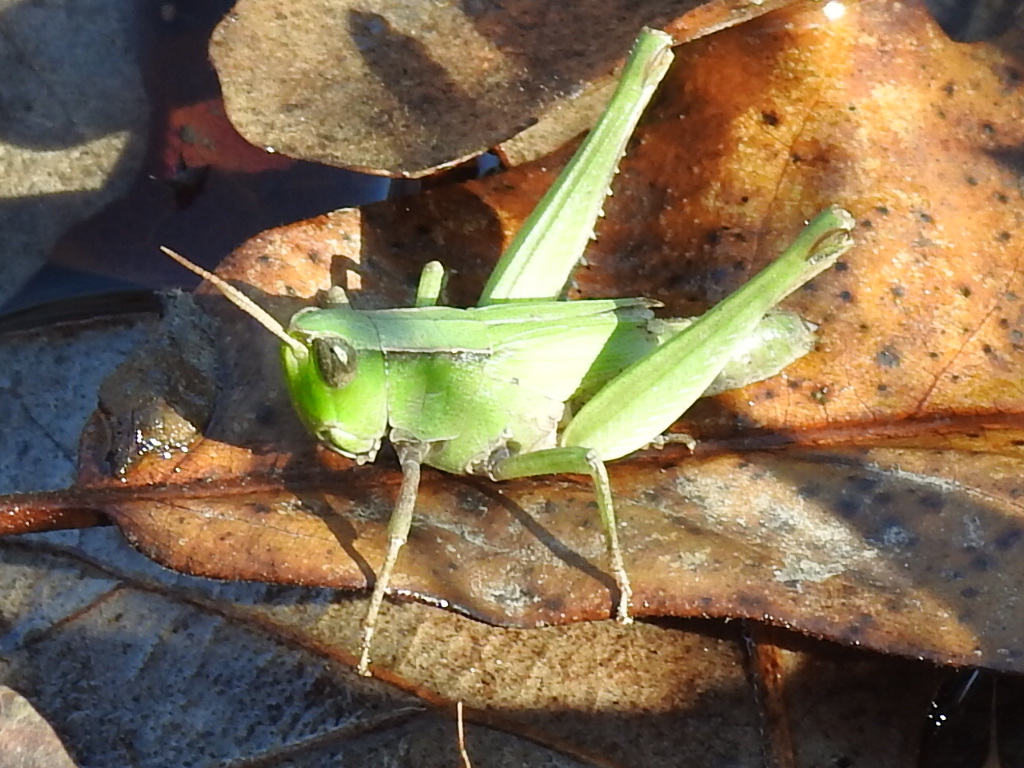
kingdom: Animalia
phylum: Arthropoda
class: Insecta
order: Orthoptera
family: Acrididae
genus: Dichromorpha
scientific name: Dichromorpha viridis
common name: Short-winged green grasshopper
